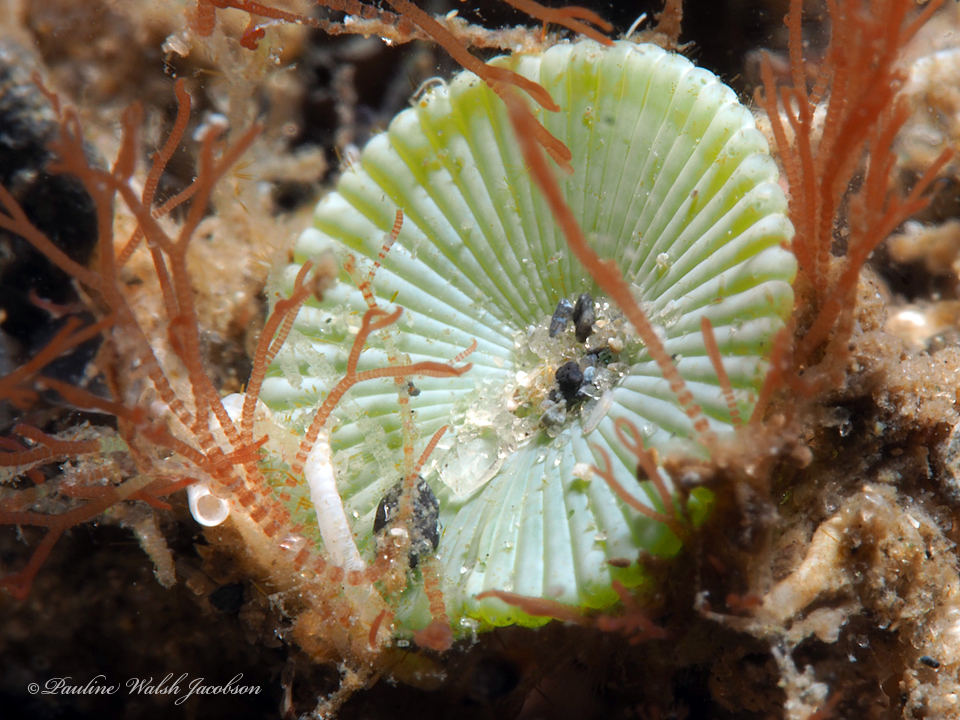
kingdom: Plantae
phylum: Chlorophyta
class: Ulvophyceae
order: Dasycladales
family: Polyphysaceae
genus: Acetabularia
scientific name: Acetabularia crenulata
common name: White mermaid's wine glass
